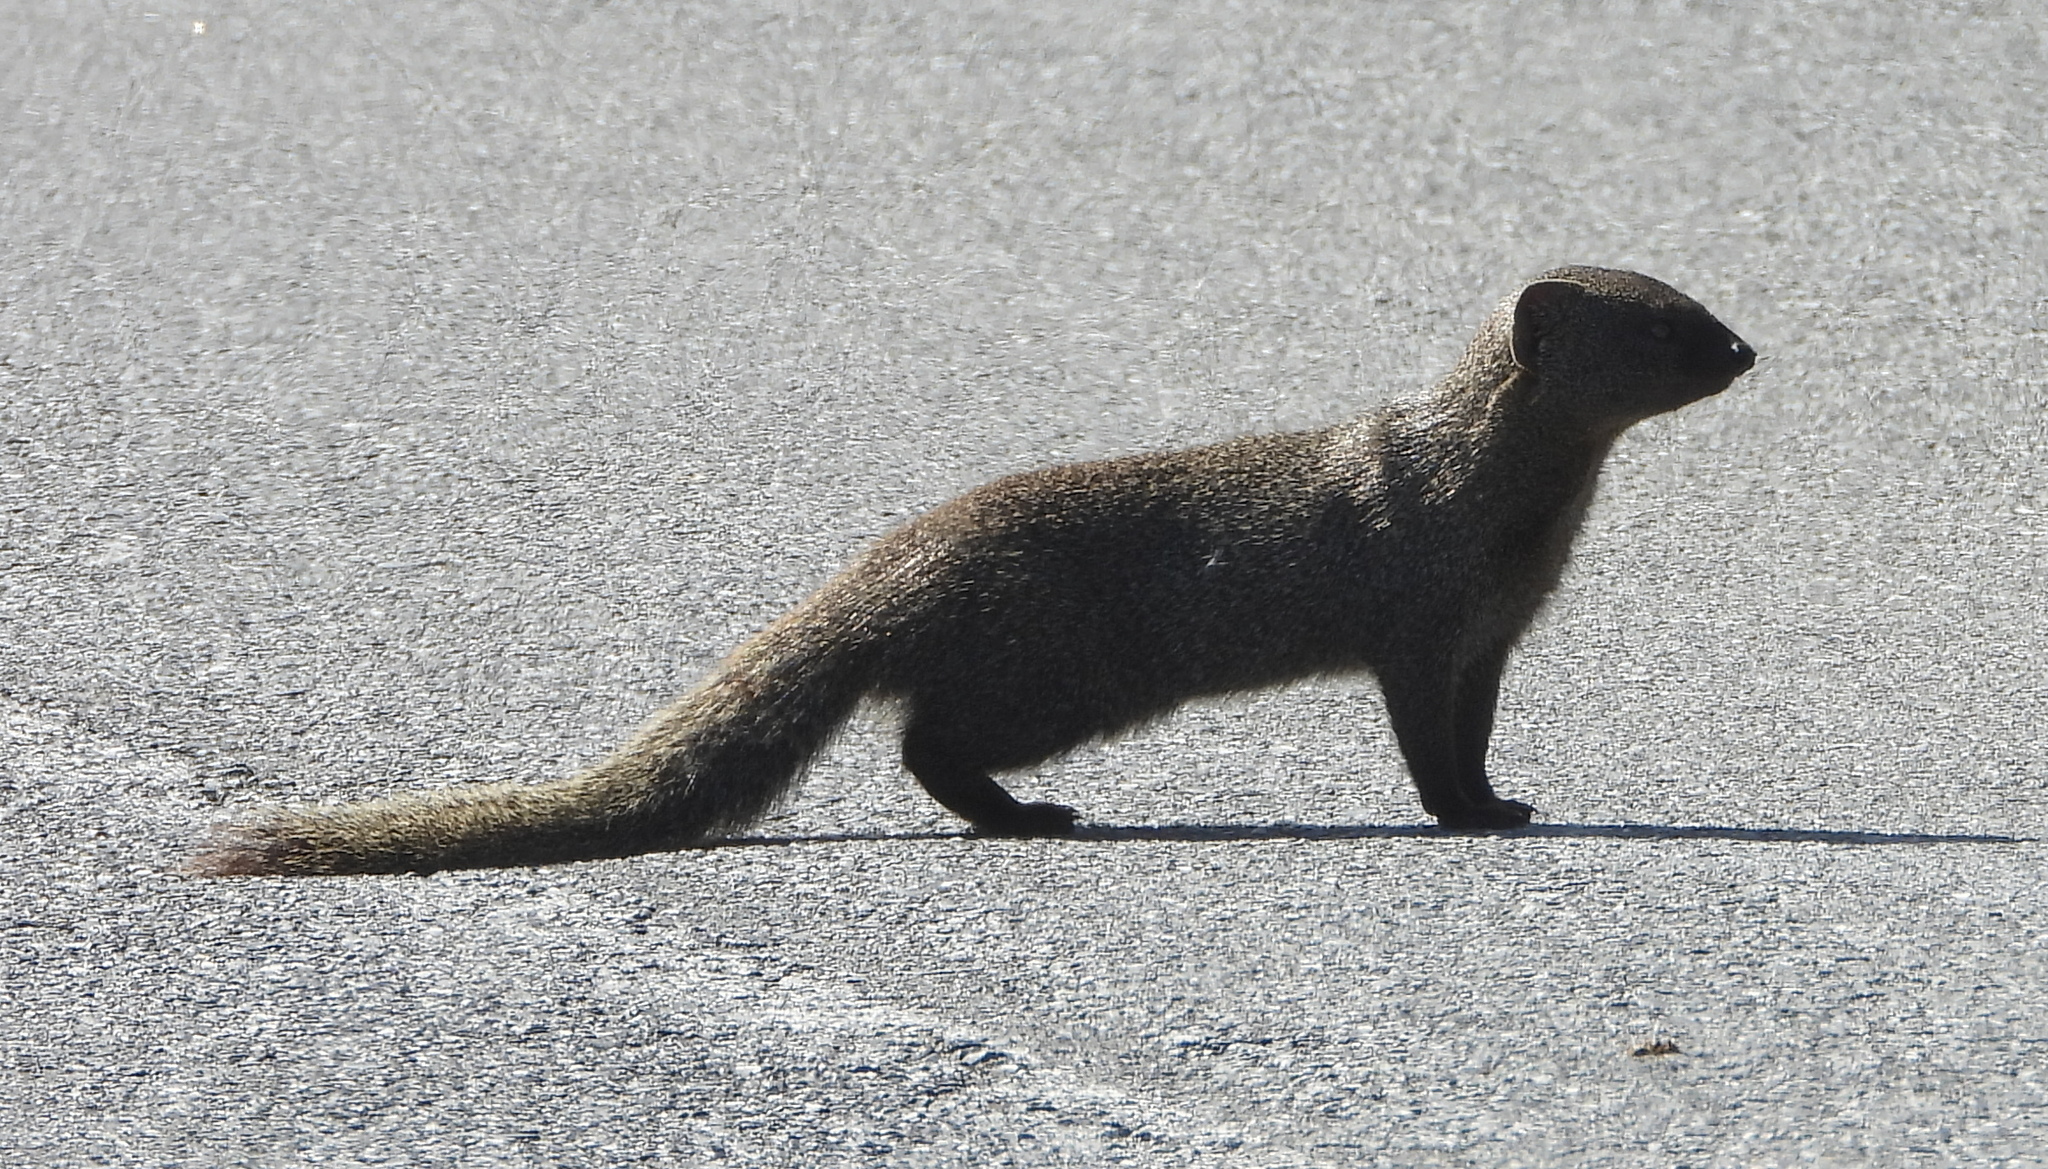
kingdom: Animalia
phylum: Chordata
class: Mammalia
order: Carnivora
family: Herpestidae
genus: Galerella
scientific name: Galerella pulverulenta
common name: Cape gray mongoose
